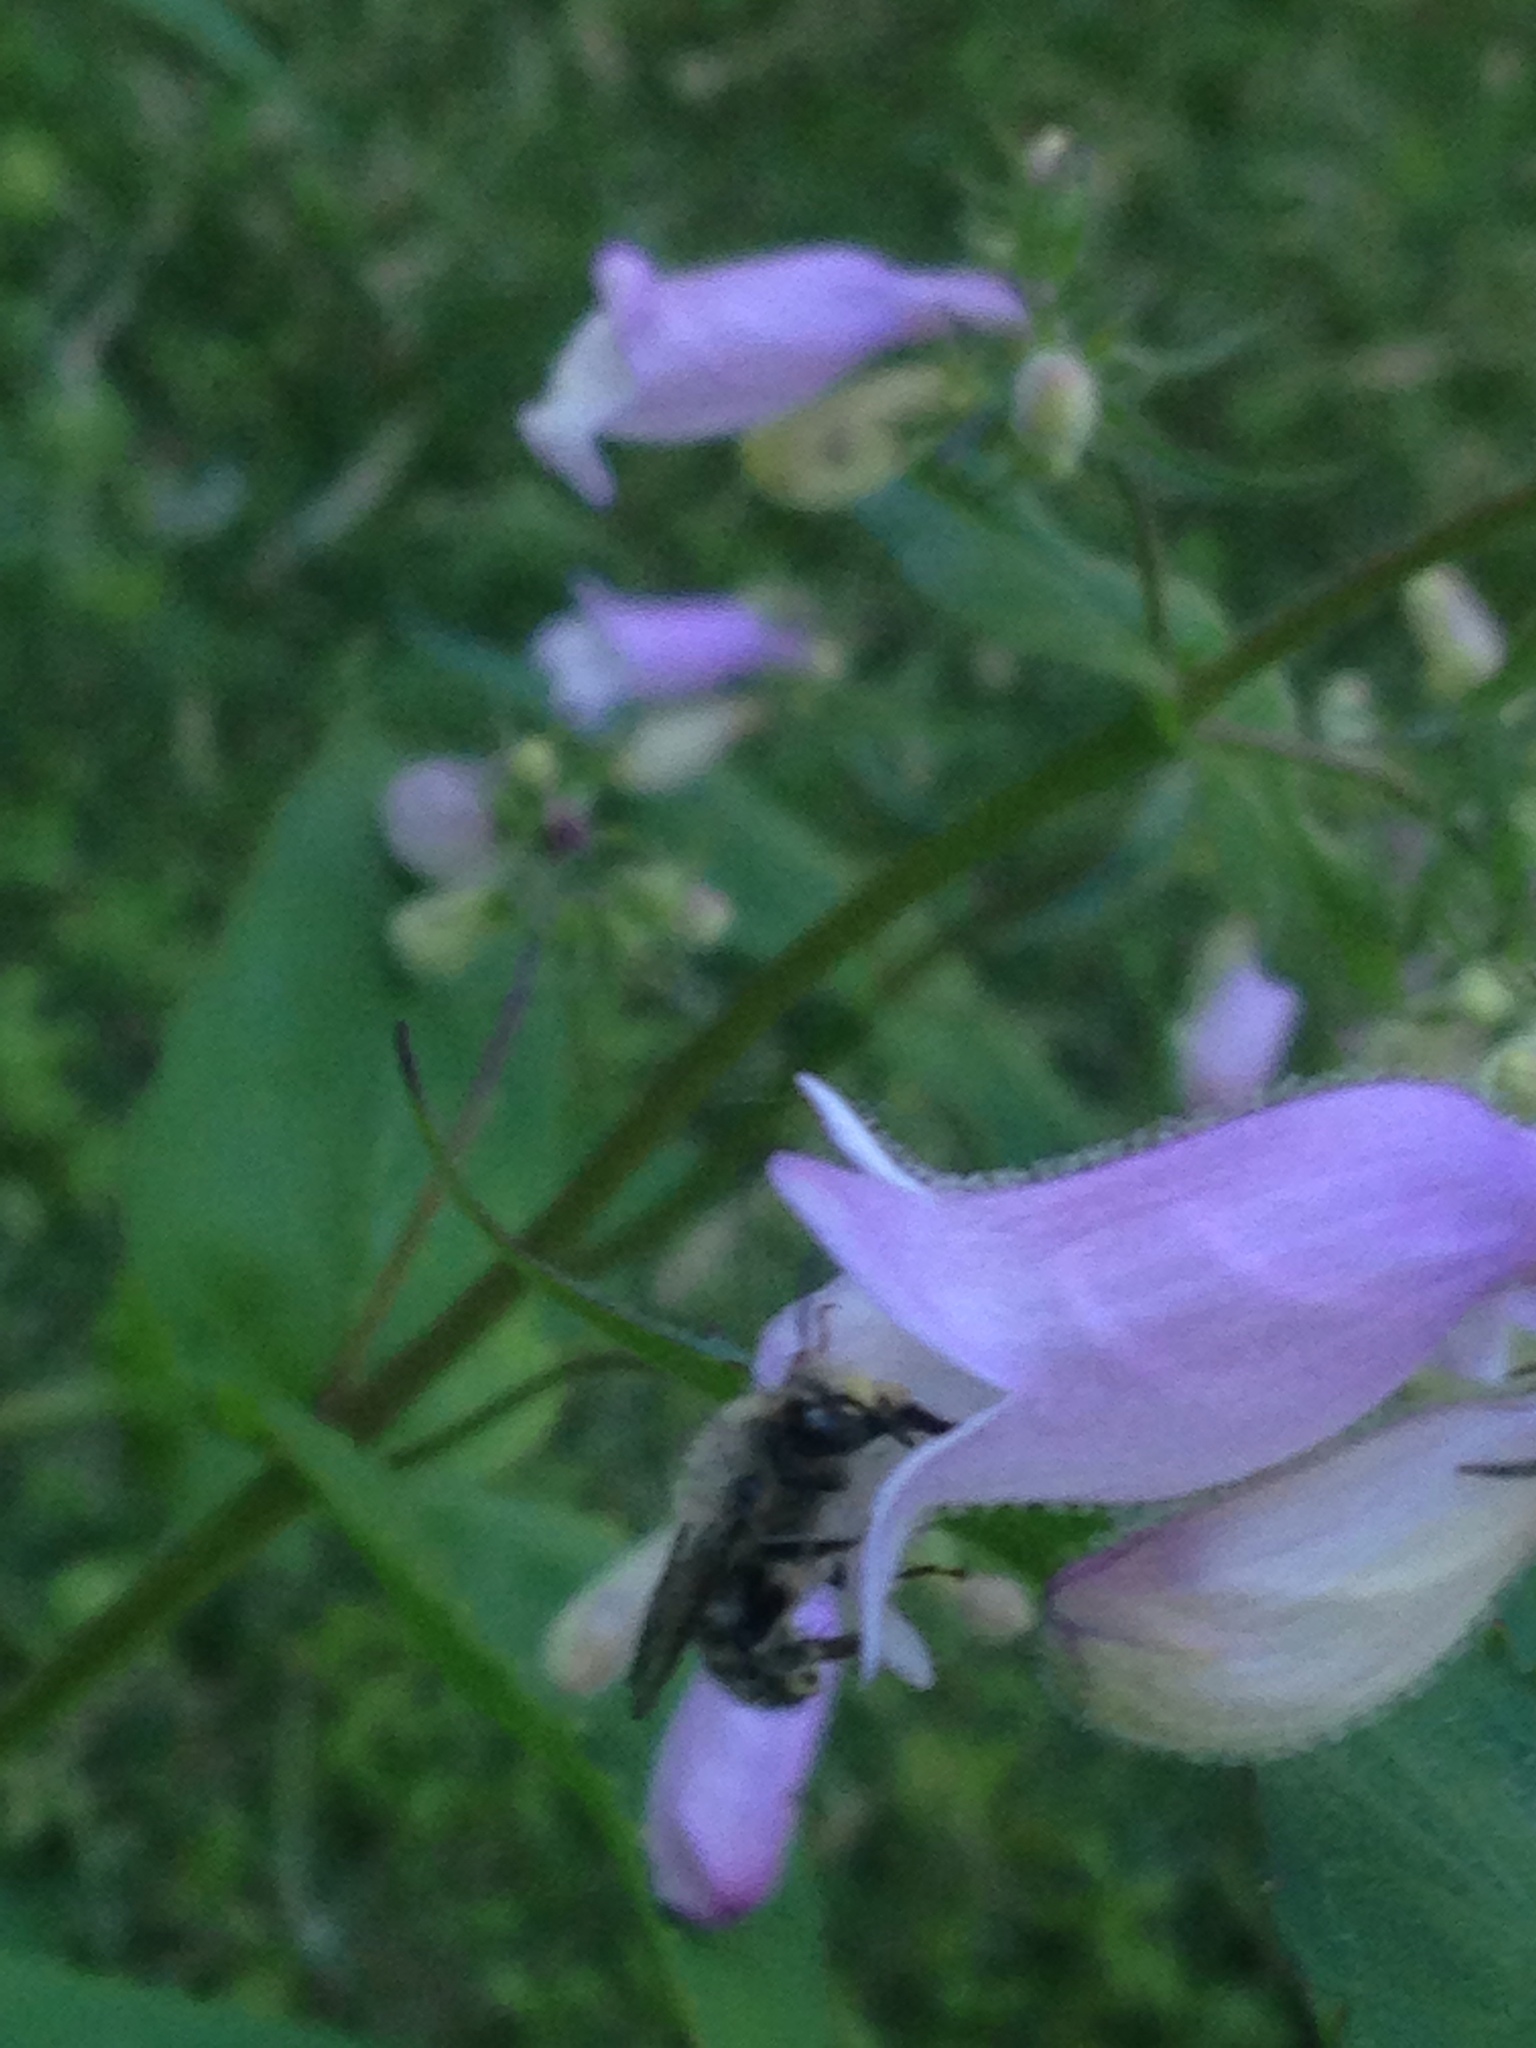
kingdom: Animalia
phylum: Arthropoda
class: Insecta
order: Hymenoptera
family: Apidae
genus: Anthophora
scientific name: Anthophora terminalis
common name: Orange-tipped wood-digger bee
